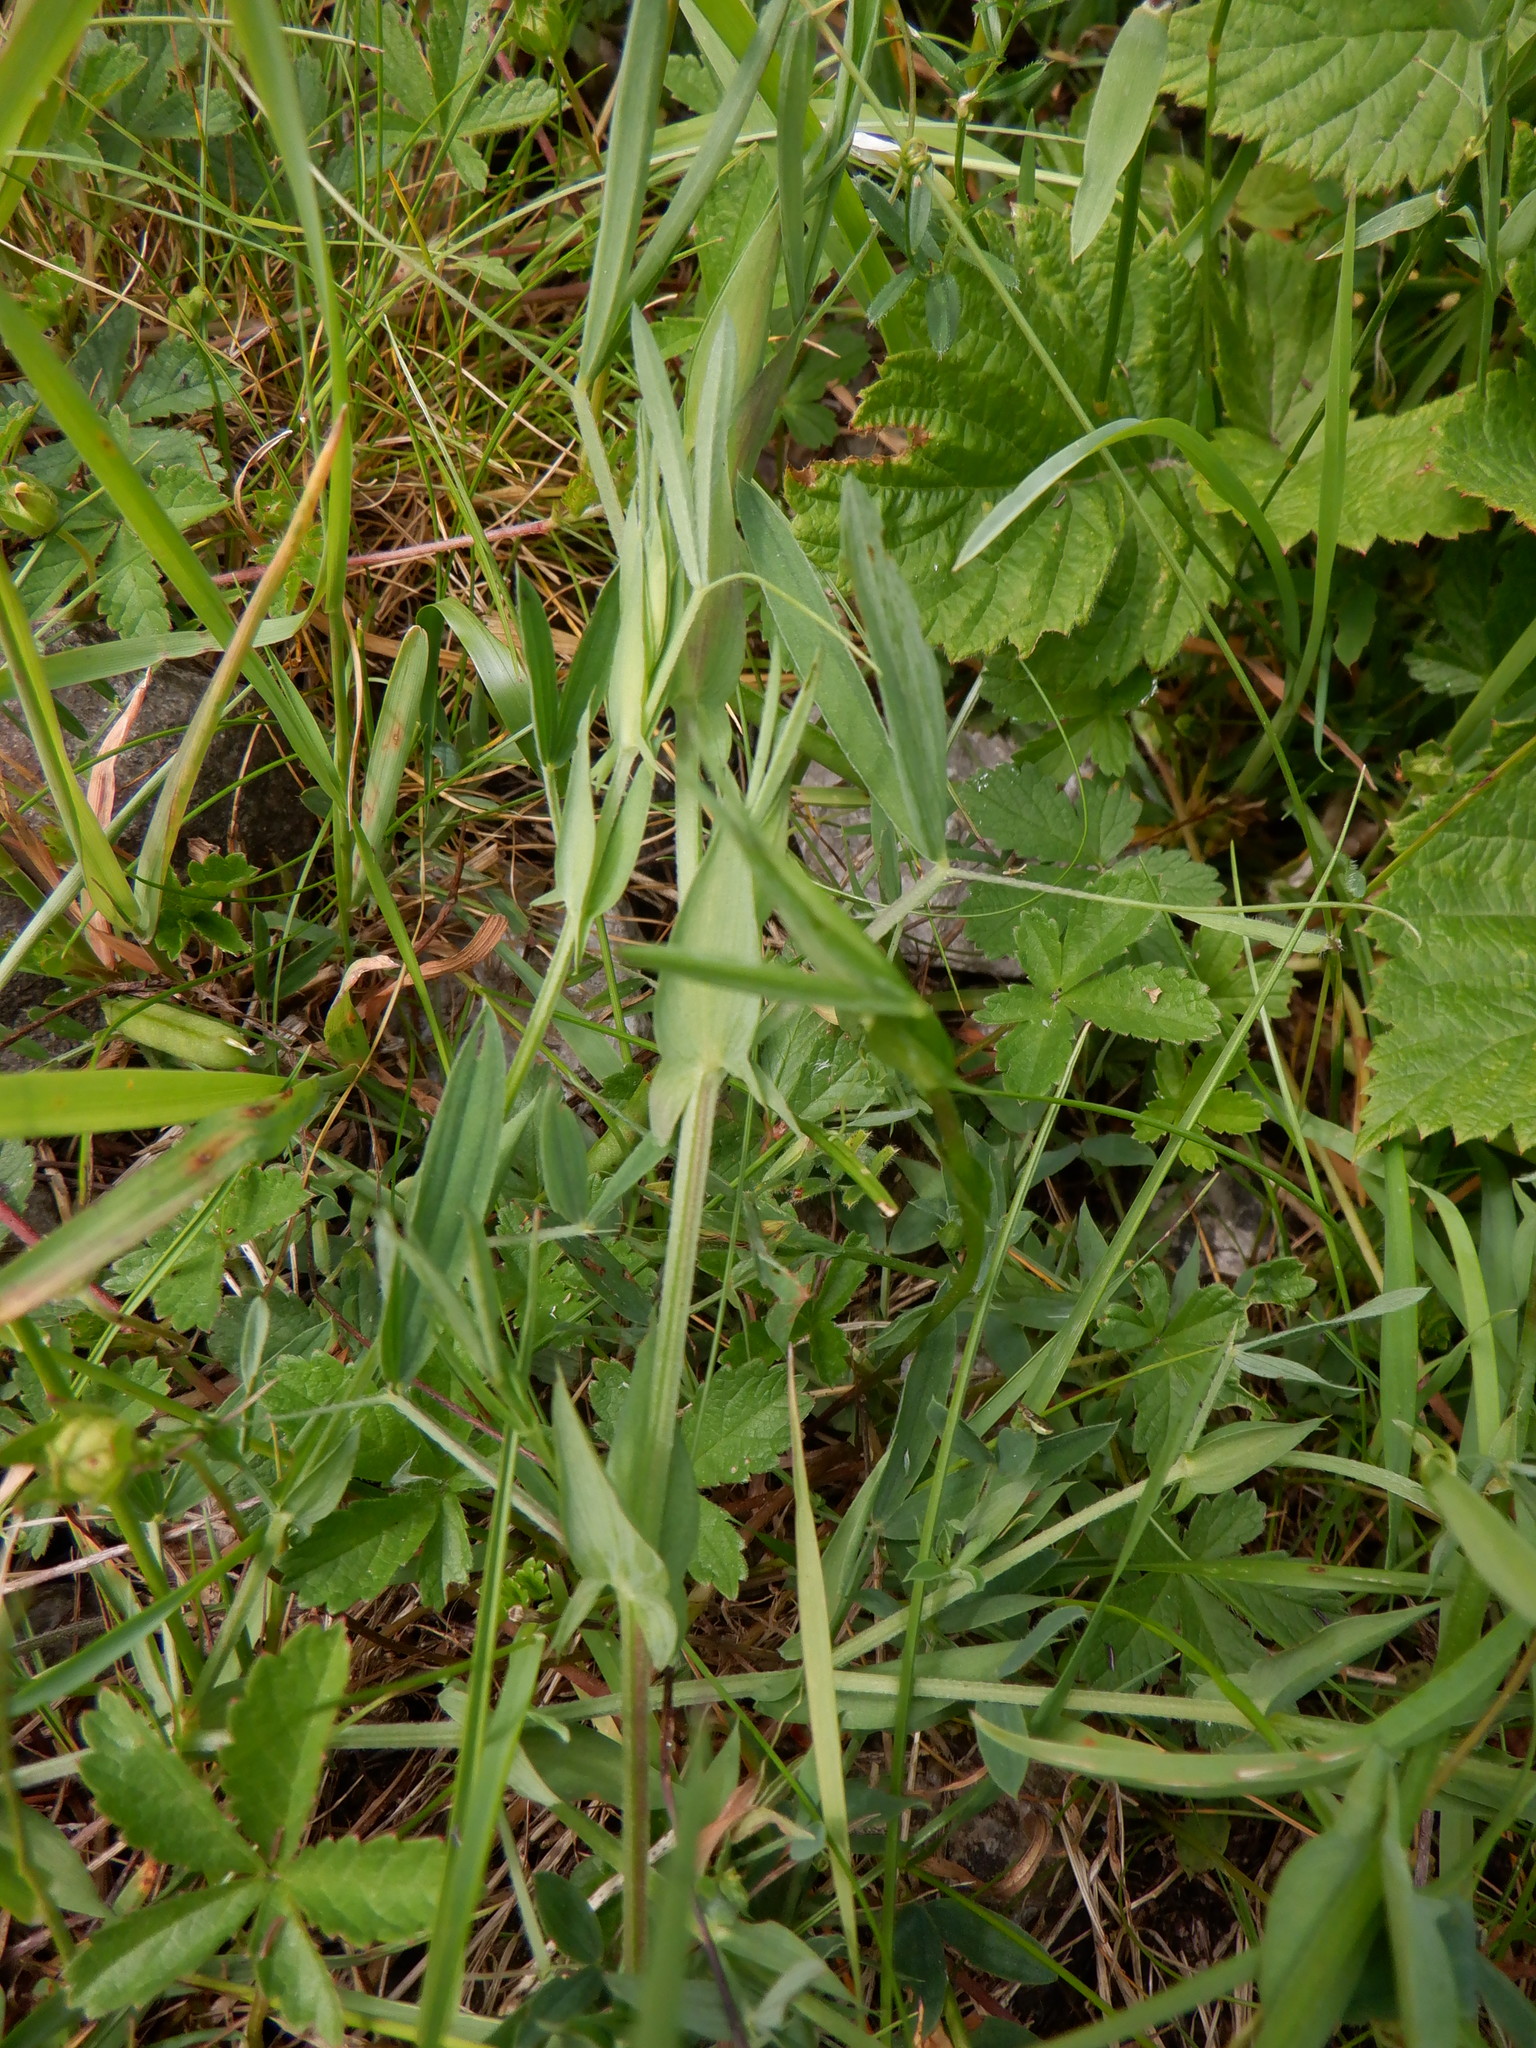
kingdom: Plantae
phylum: Tracheophyta
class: Magnoliopsida
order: Fabales
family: Fabaceae
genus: Lathyrus
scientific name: Lathyrus pratensis
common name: Meadow vetchling
